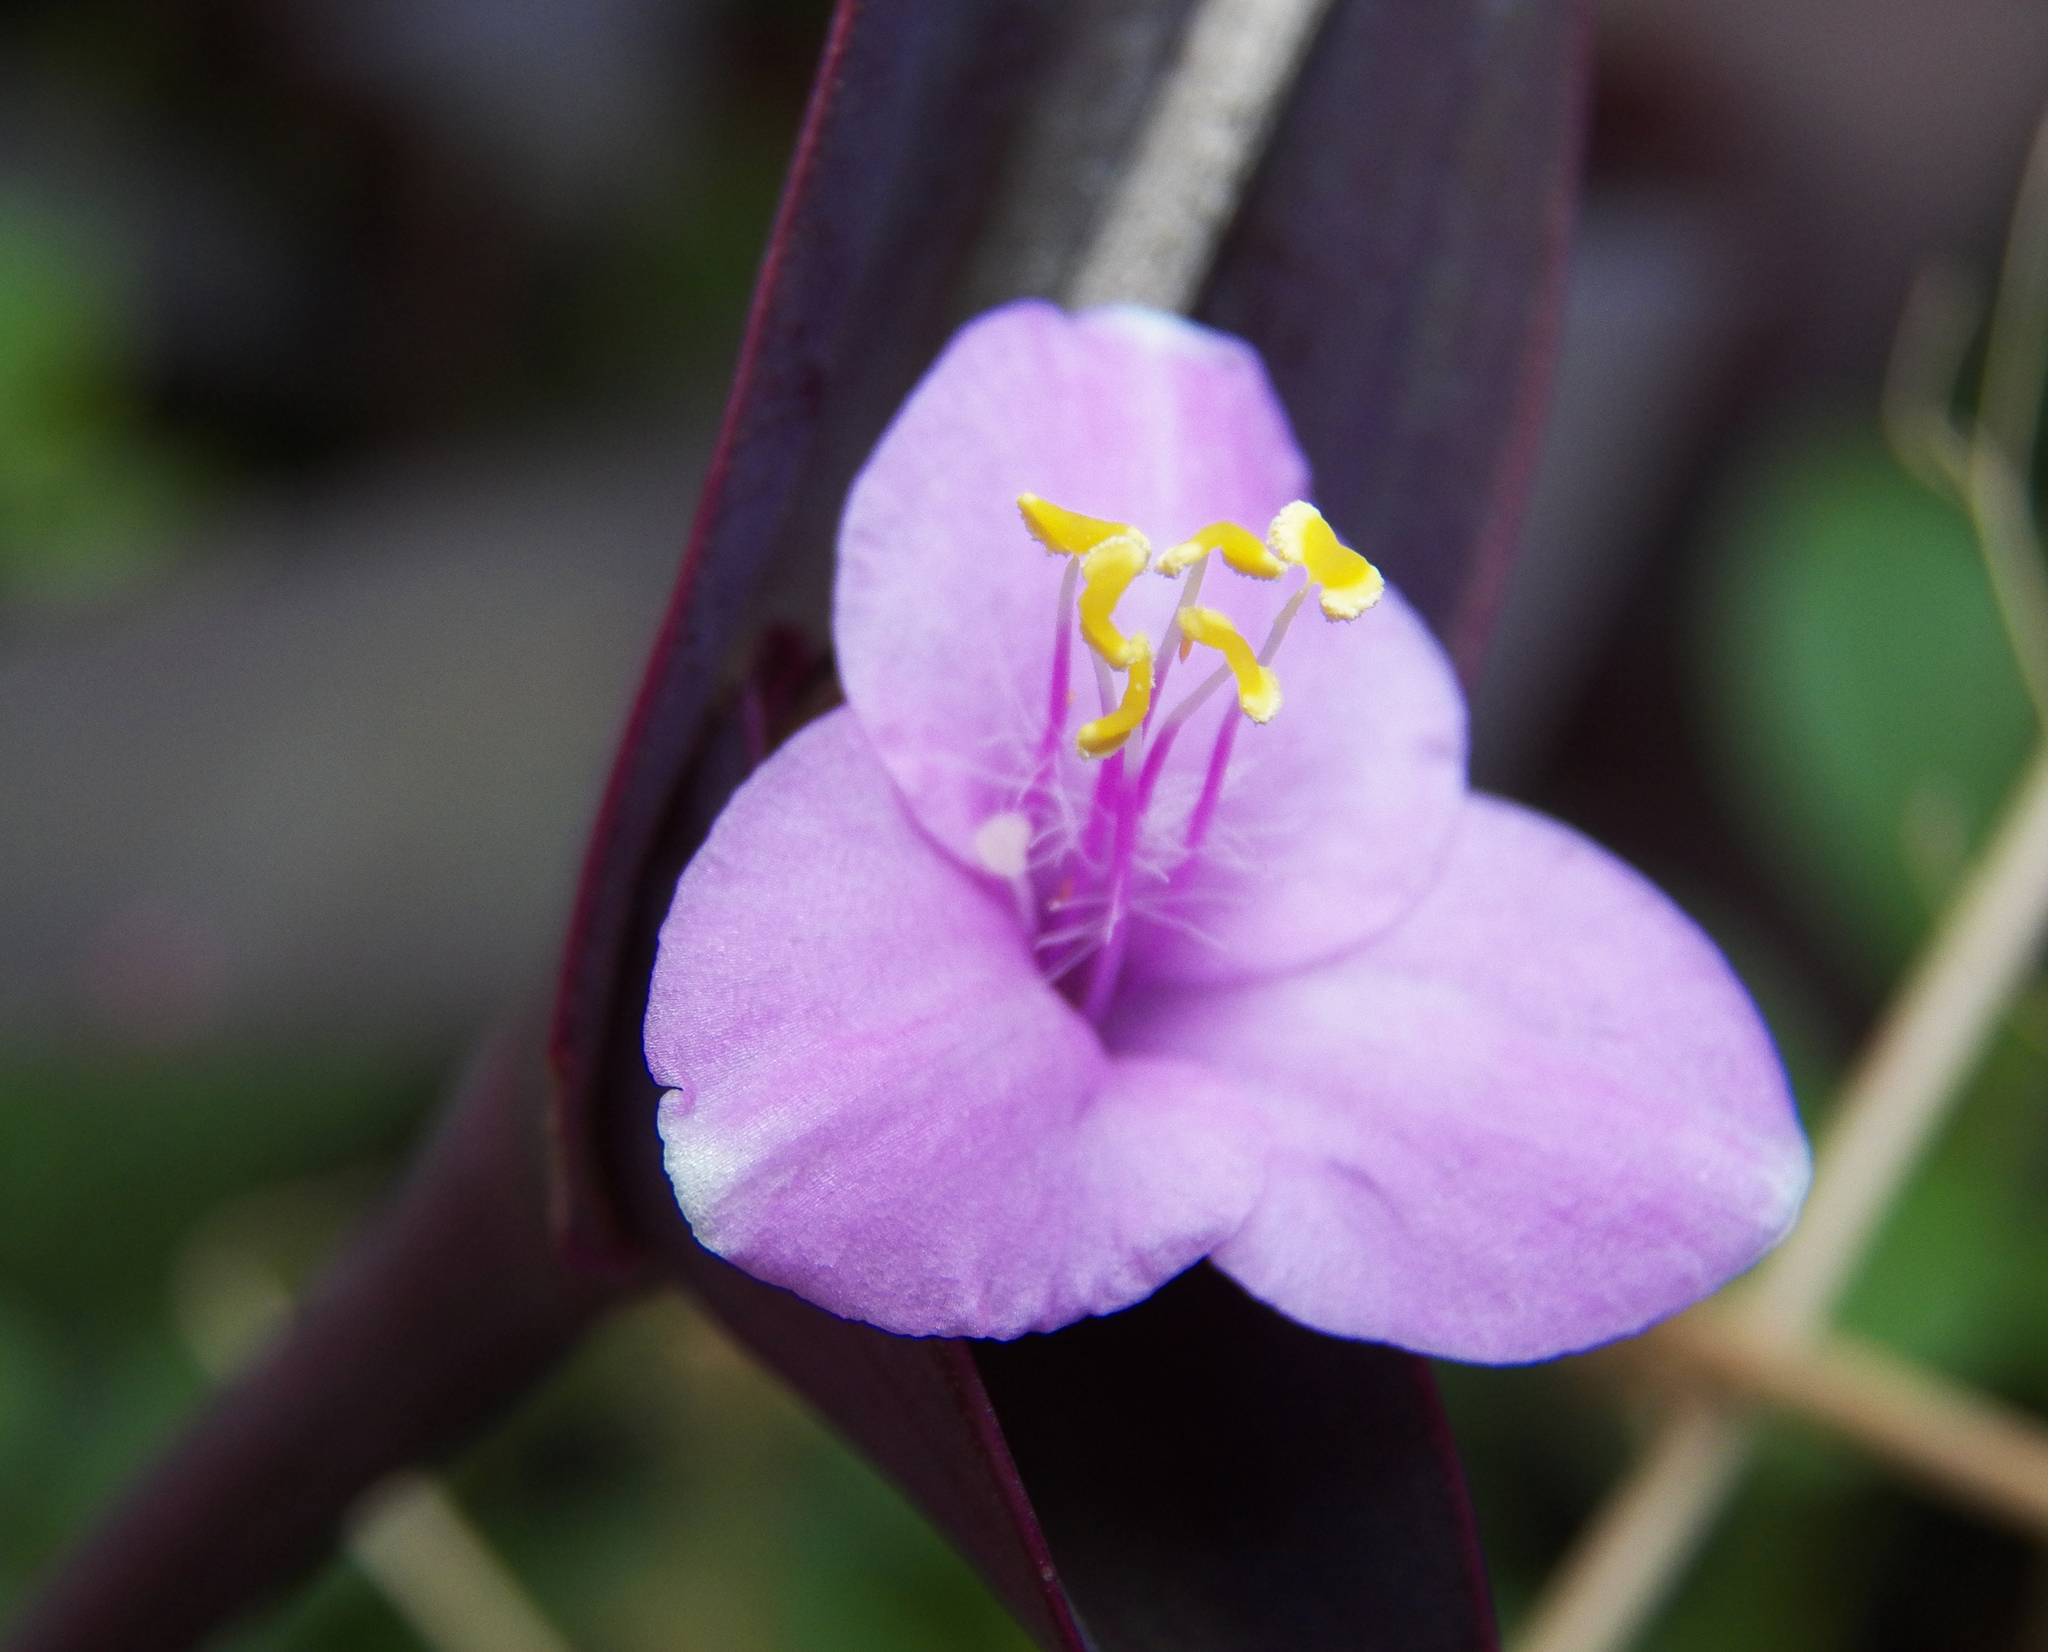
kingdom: Plantae
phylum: Tracheophyta
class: Liliopsida
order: Commelinales
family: Commelinaceae
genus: Tradescantia
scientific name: Tradescantia pallida
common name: Purpleheart
